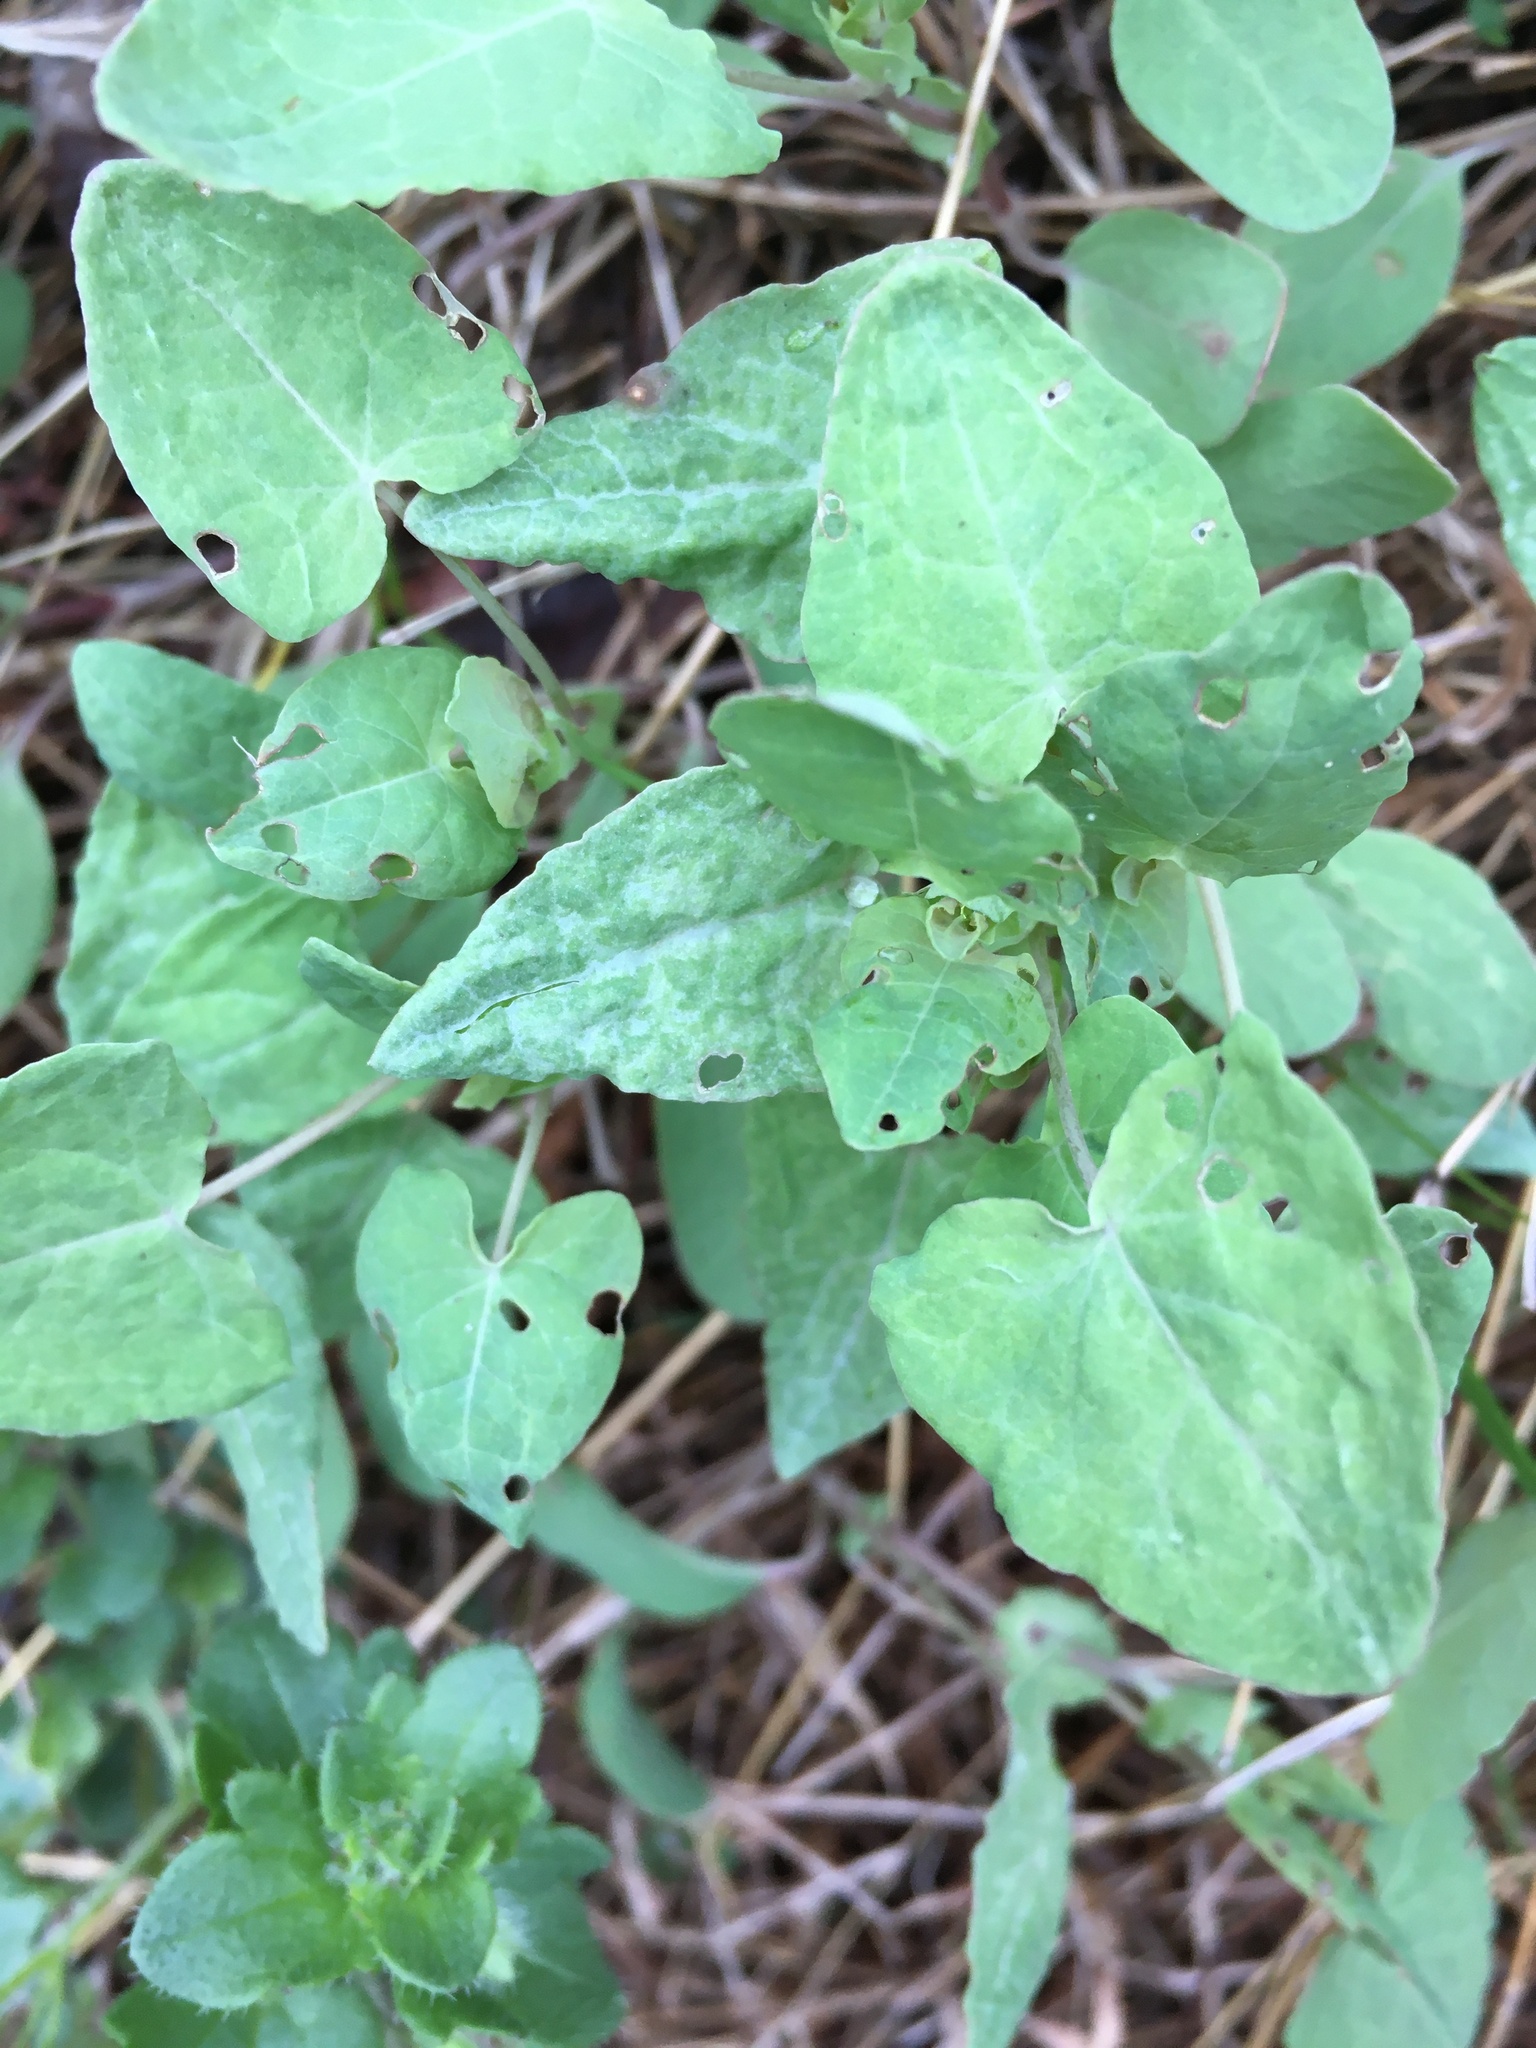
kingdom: Plantae
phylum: Tracheophyta
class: Magnoliopsida
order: Caryophyllales
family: Polygonaceae
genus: Persicaria
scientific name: Persicaria perfoliata
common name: Asiatic tearthumb
